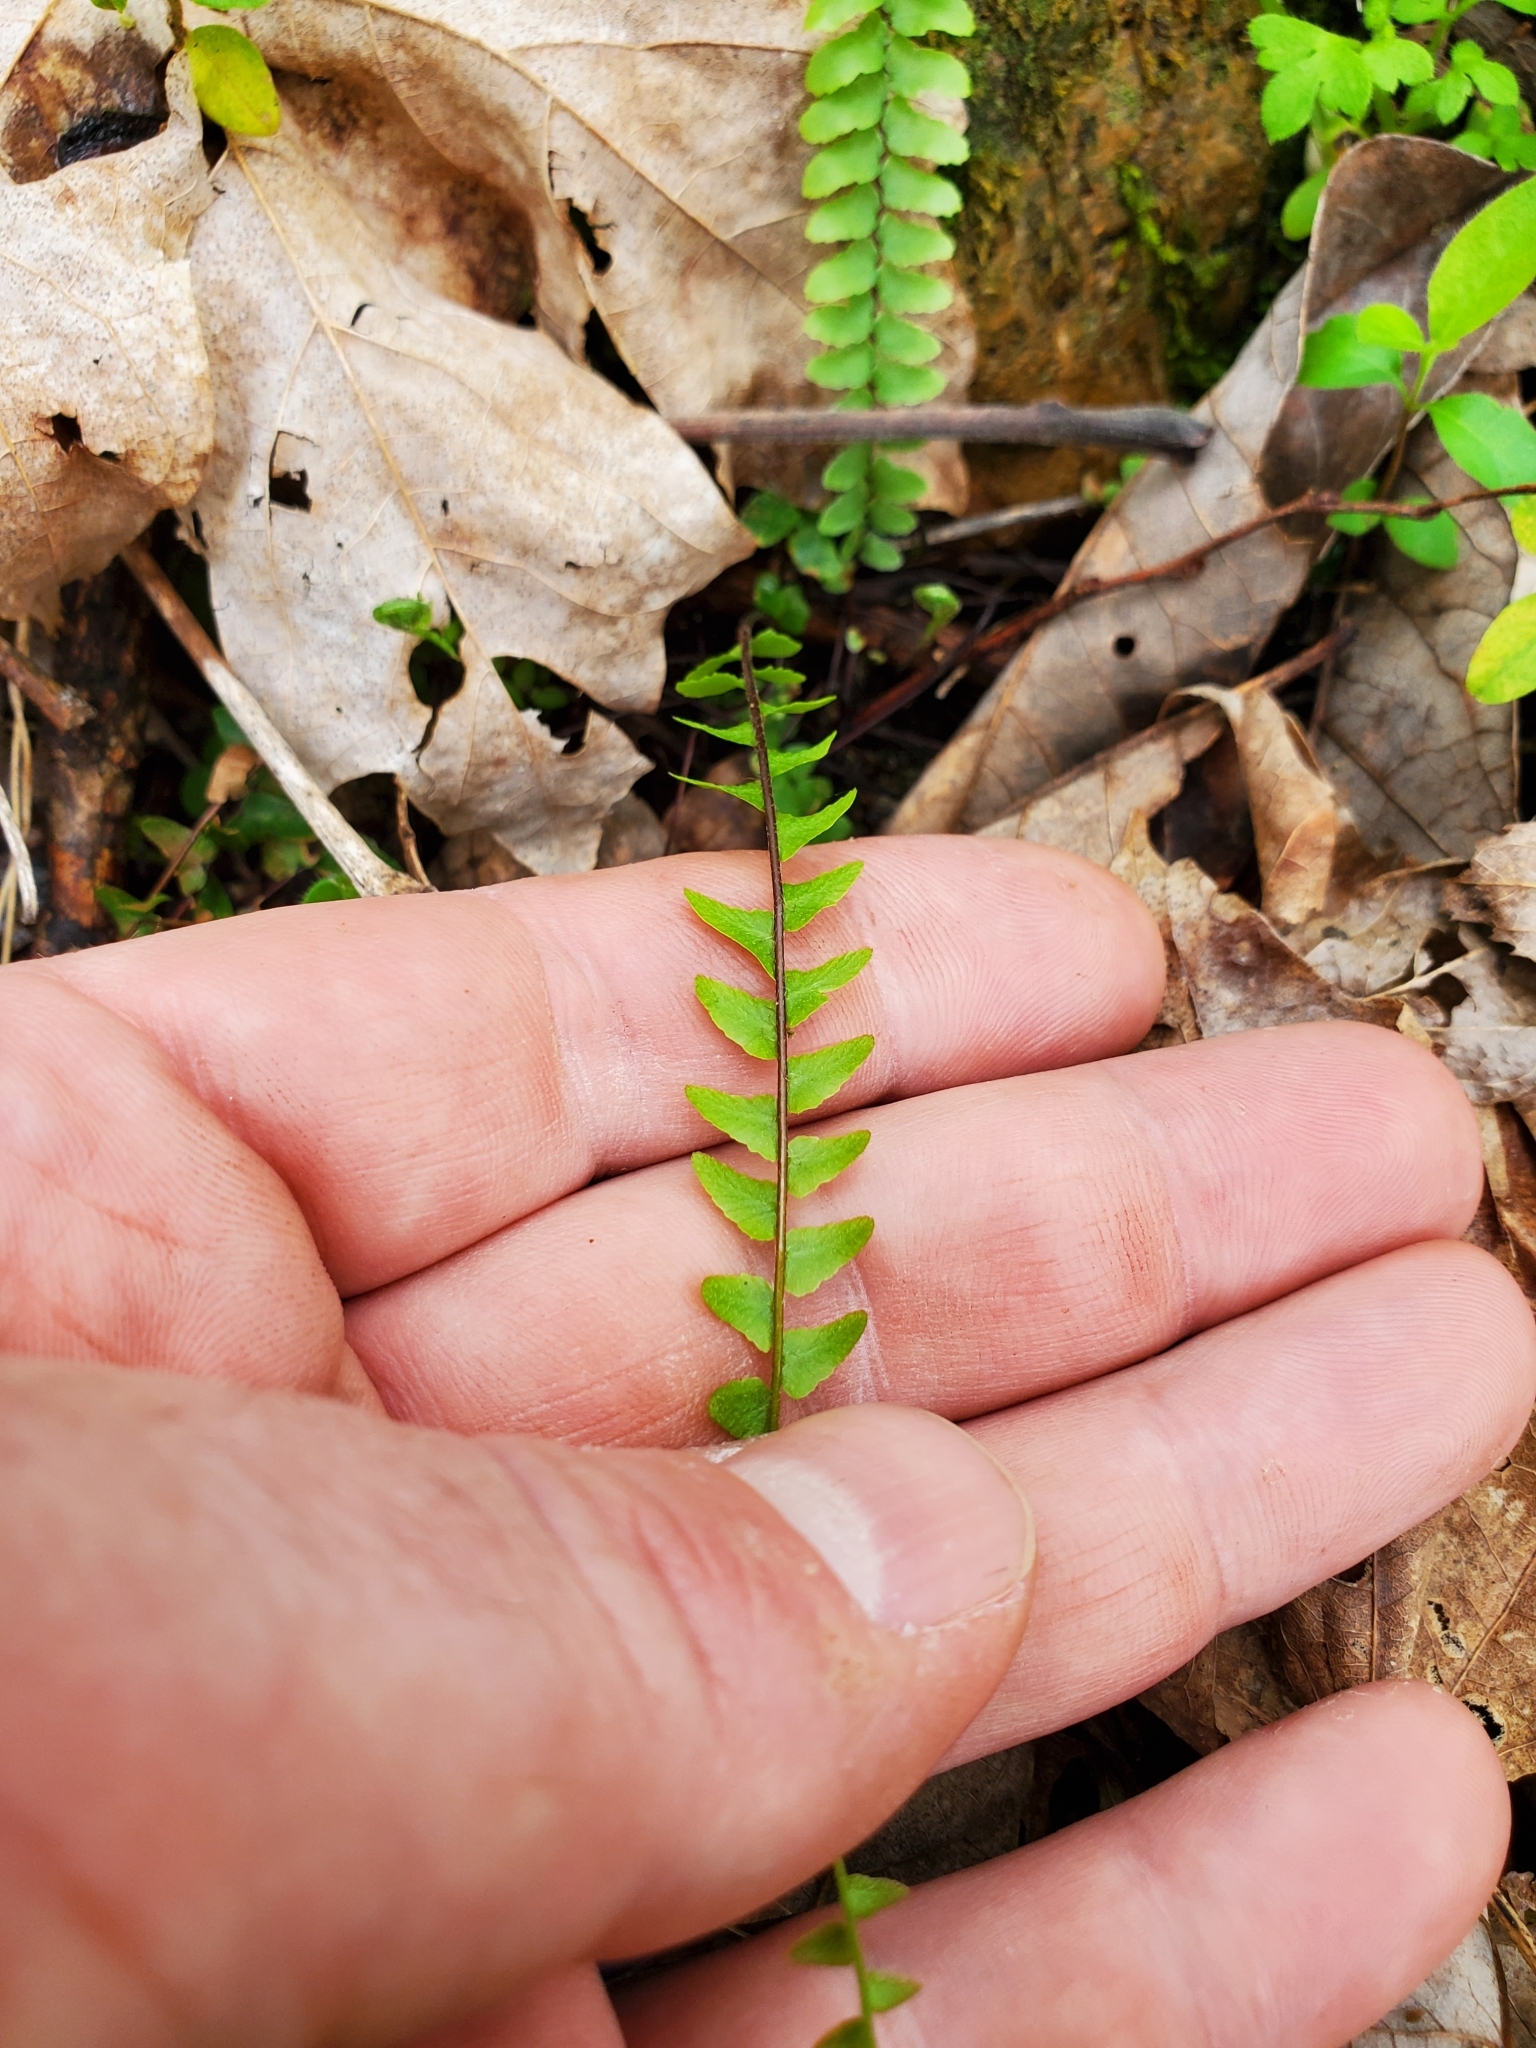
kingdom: Plantae
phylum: Tracheophyta
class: Polypodiopsida
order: Polypodiales
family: Aspleniaceae
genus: Asplenium
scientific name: Asplenium platyneuron
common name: Ebony spleenwort
